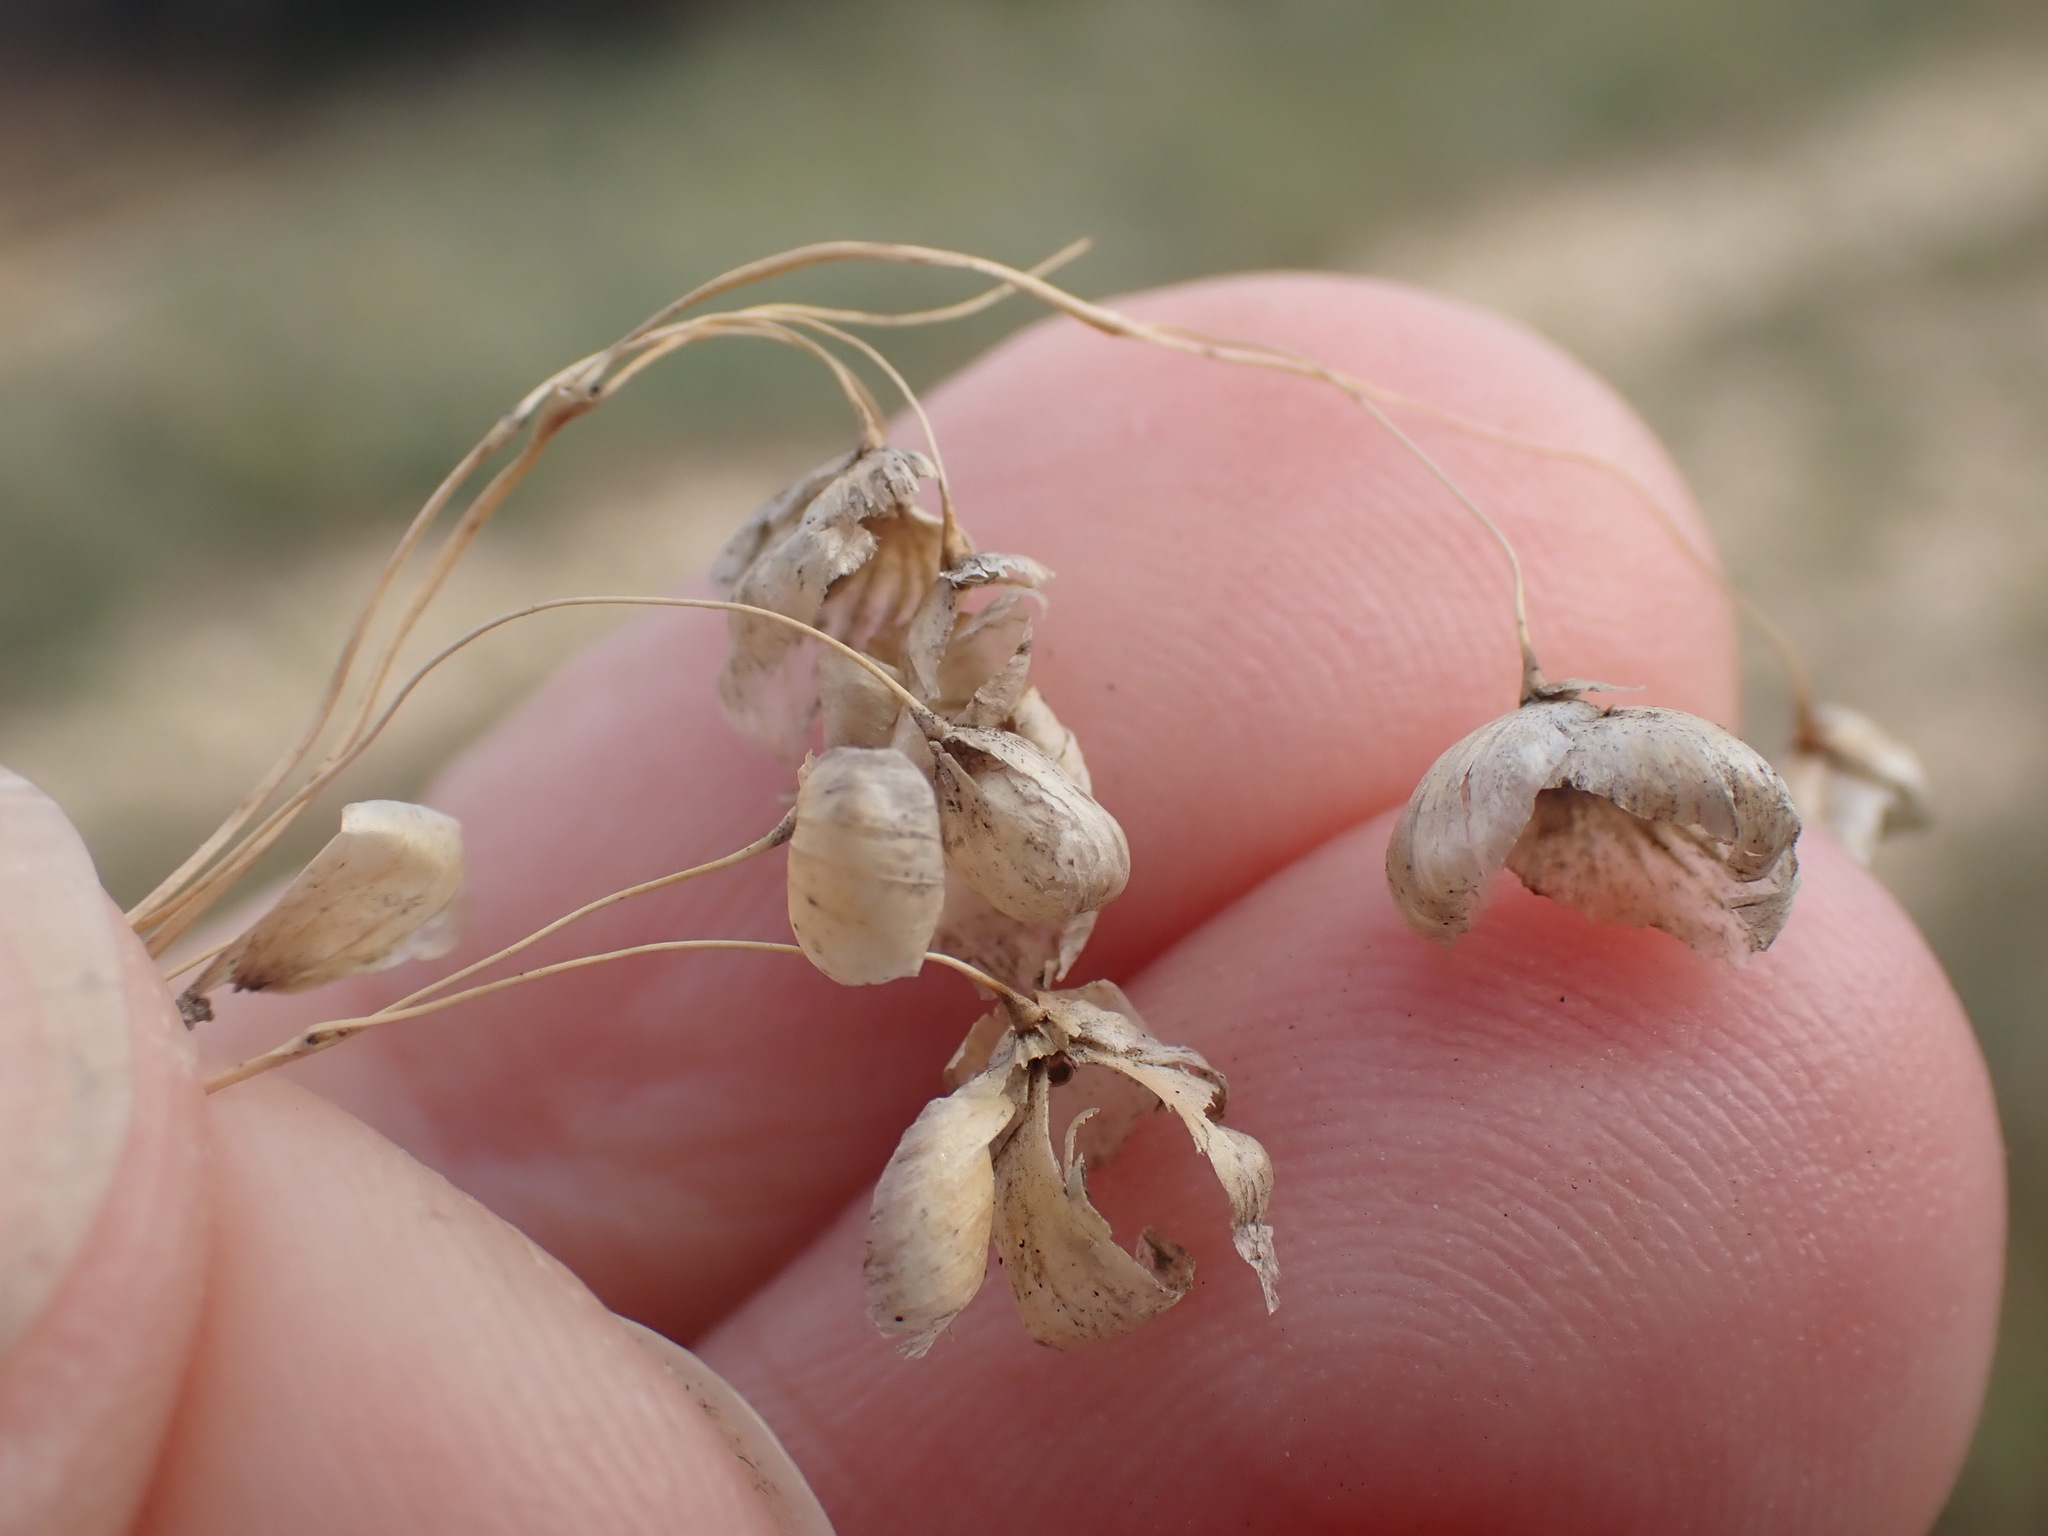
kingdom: Plantae
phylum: Tracheophyta
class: Liliopsida
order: Poales
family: Poaceae
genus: Briza
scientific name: Briza maxima
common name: Big quakinggrass
